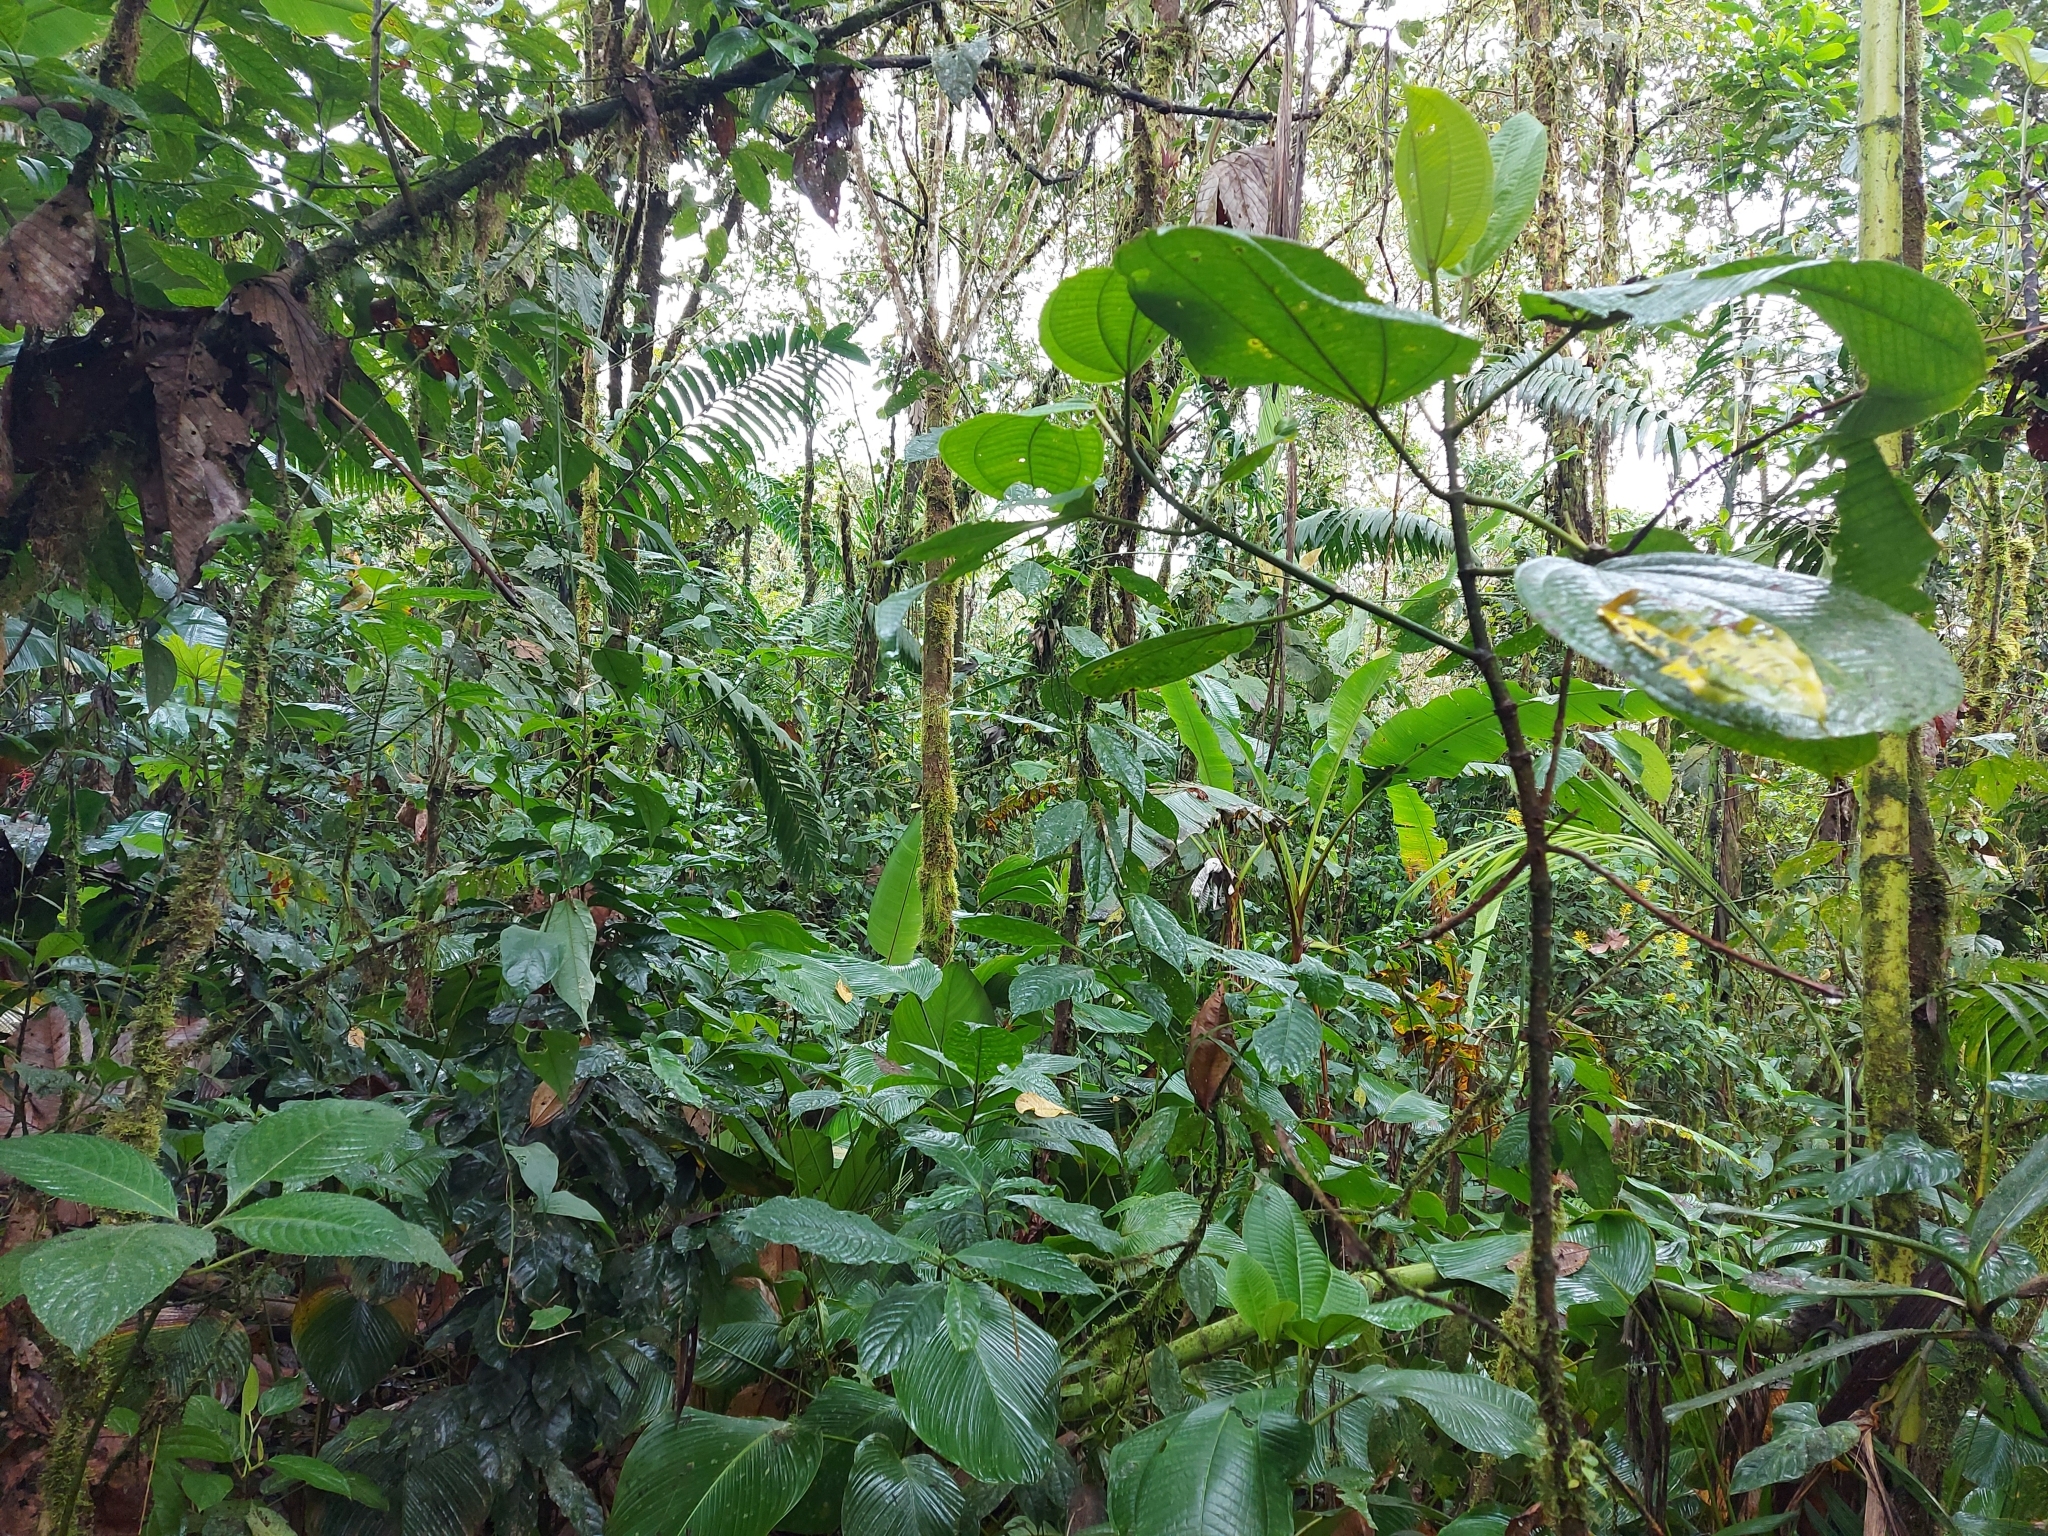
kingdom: Animalia
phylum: Chordata
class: Aves
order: Passeriformes
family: Turdidae
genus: Catharus
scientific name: Catharus dryas
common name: Spotted nightingale-thrush
